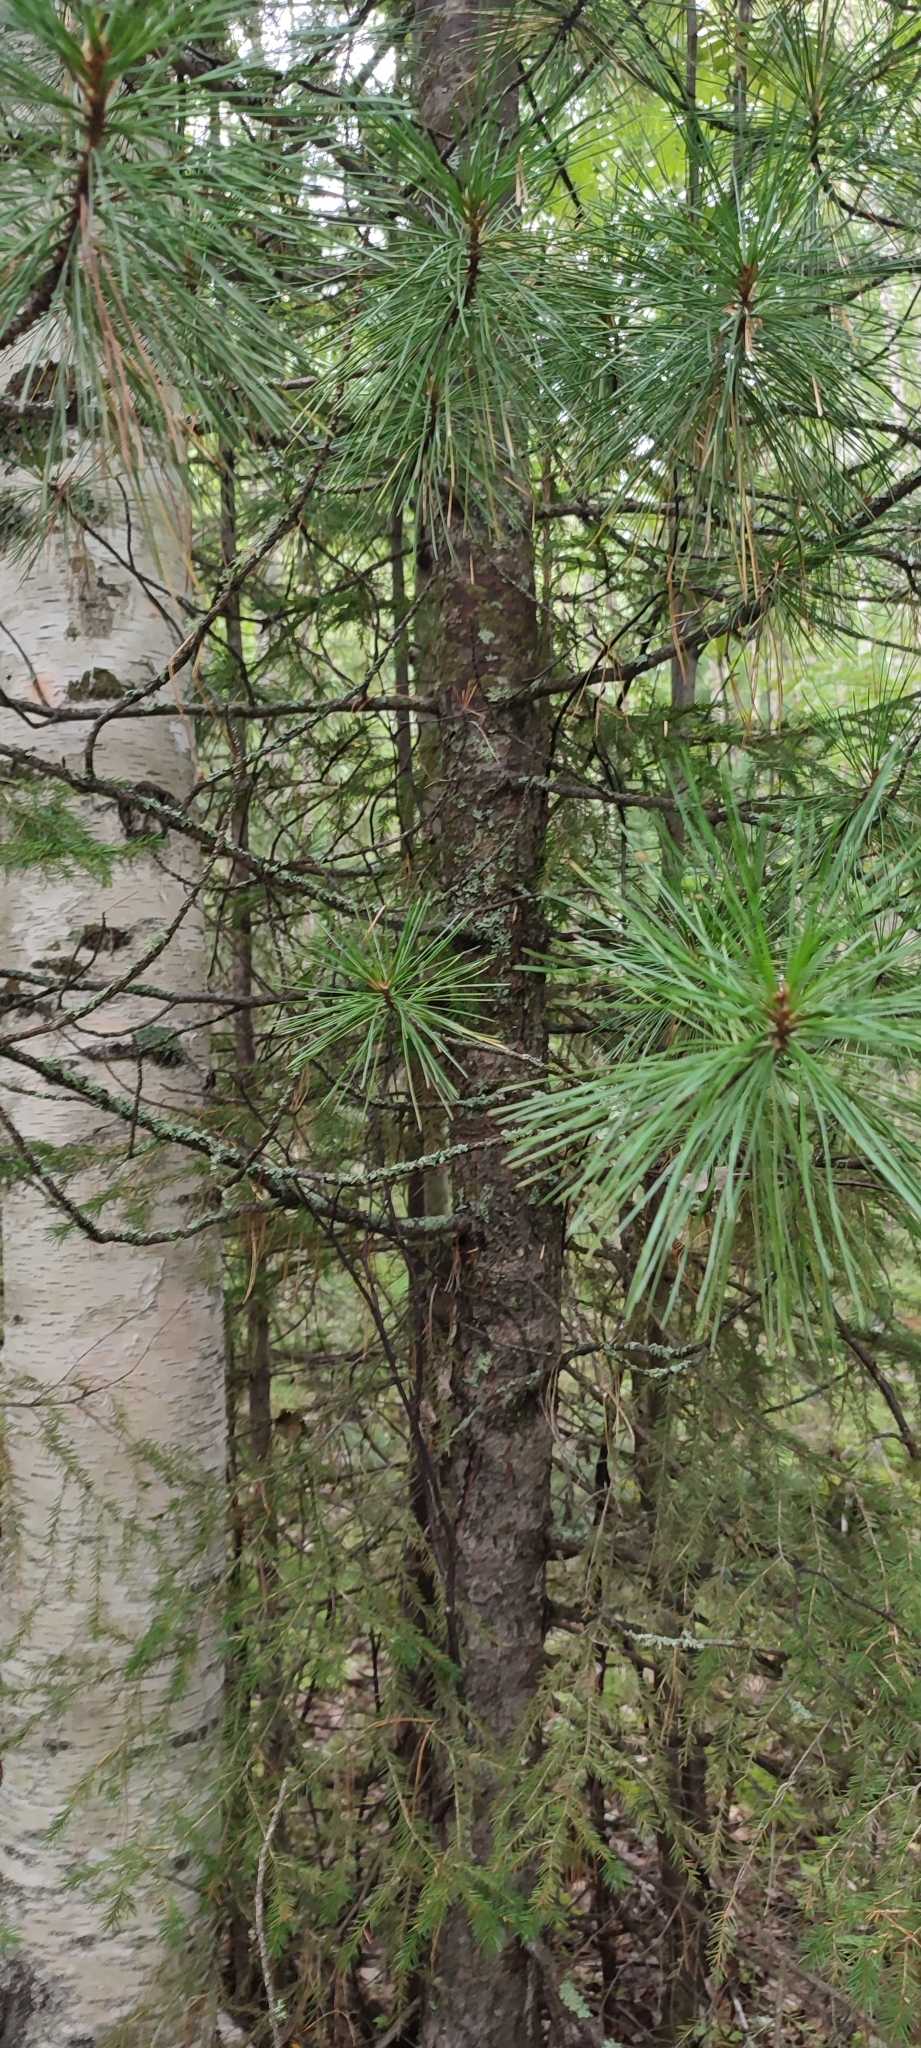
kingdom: Plantae
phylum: Tracheophyta
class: Pinopsida
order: Pinales
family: Pinaceae
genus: Pinus
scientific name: Pinus sibirica
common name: Siberian pine
